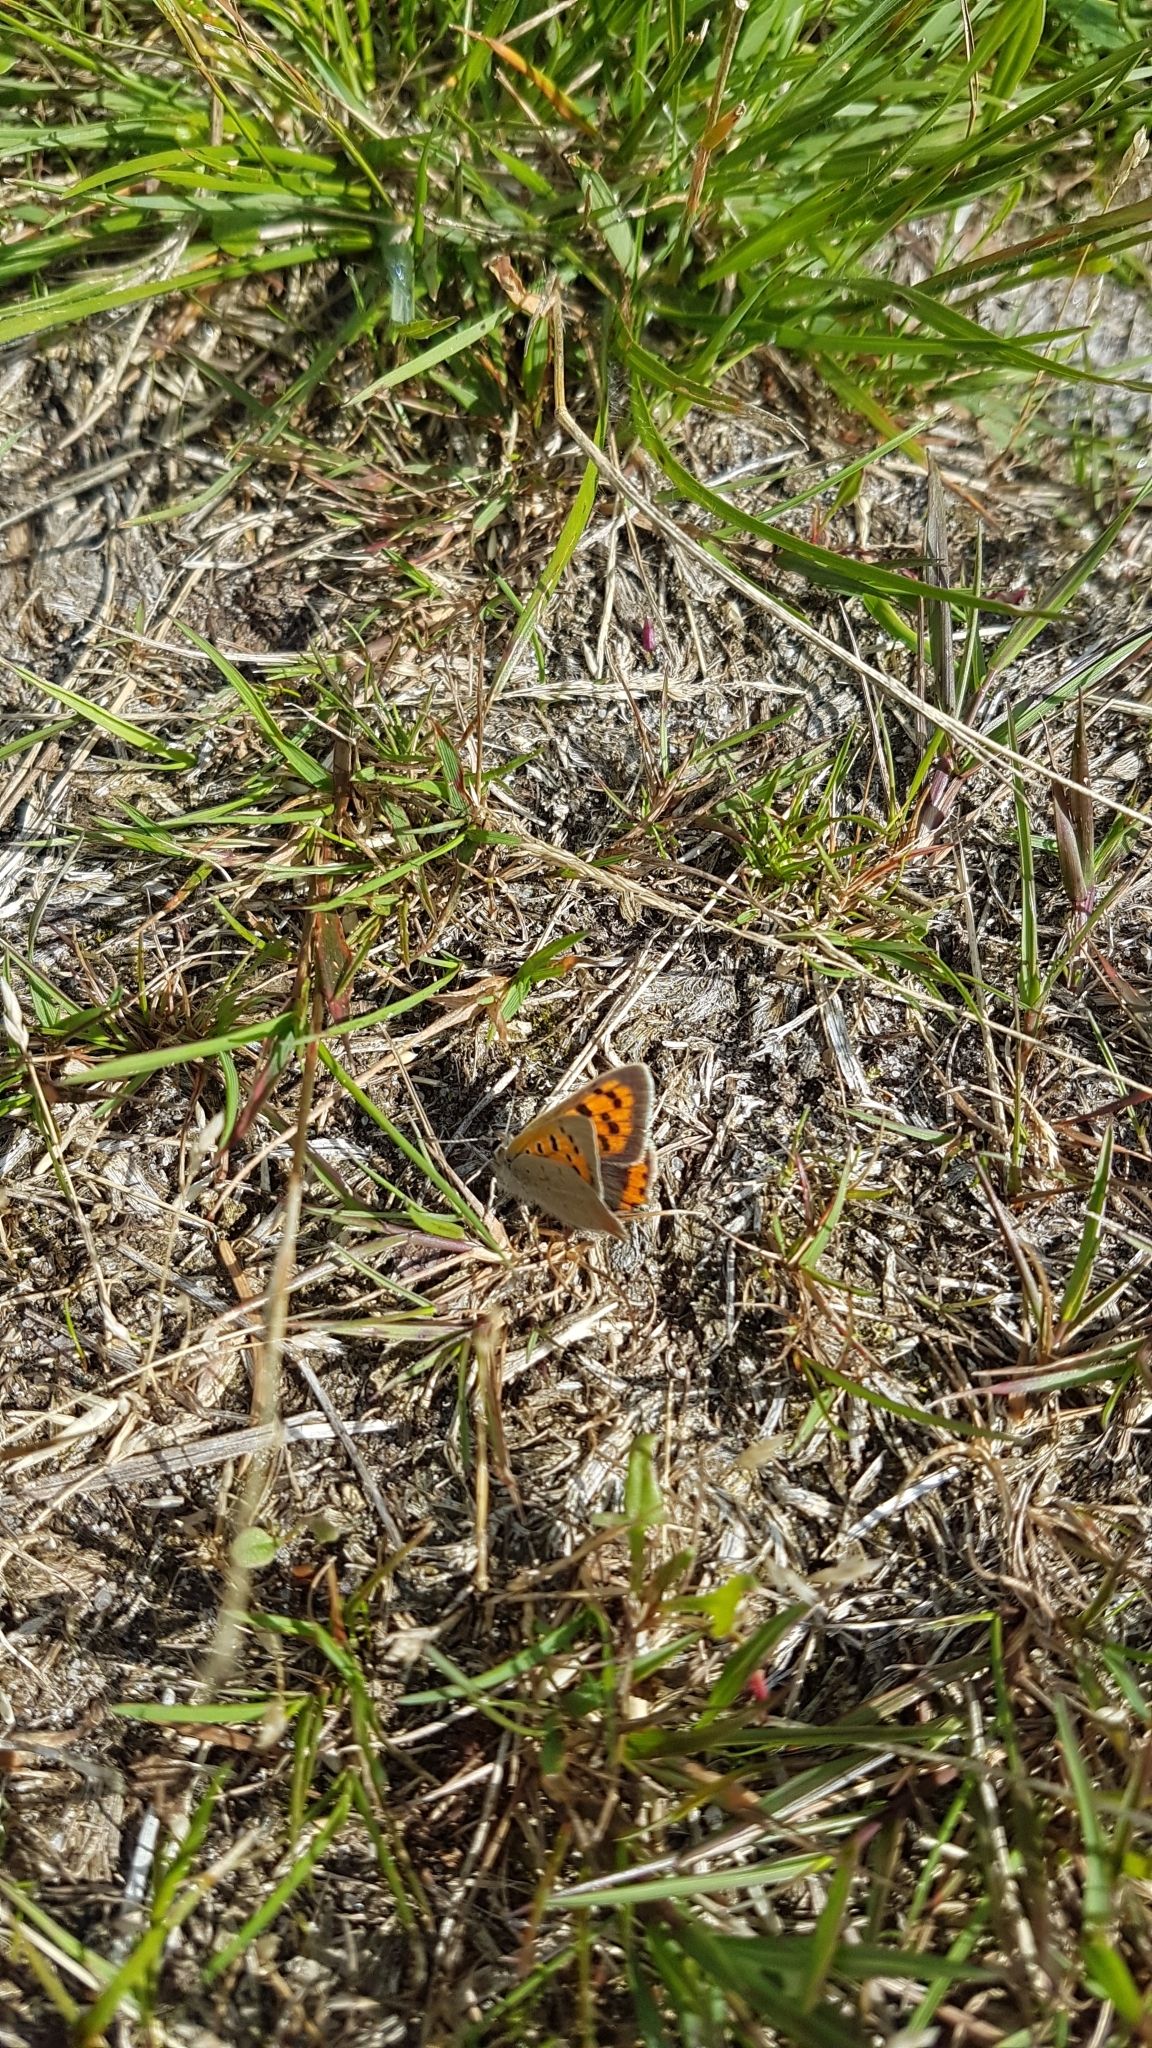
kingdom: Animalia
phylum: Arthropoda
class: Insecta
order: Lepidoptera
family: Lycaenidae
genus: Lycaena
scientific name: Lycaena phlaeas
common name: Small copper
